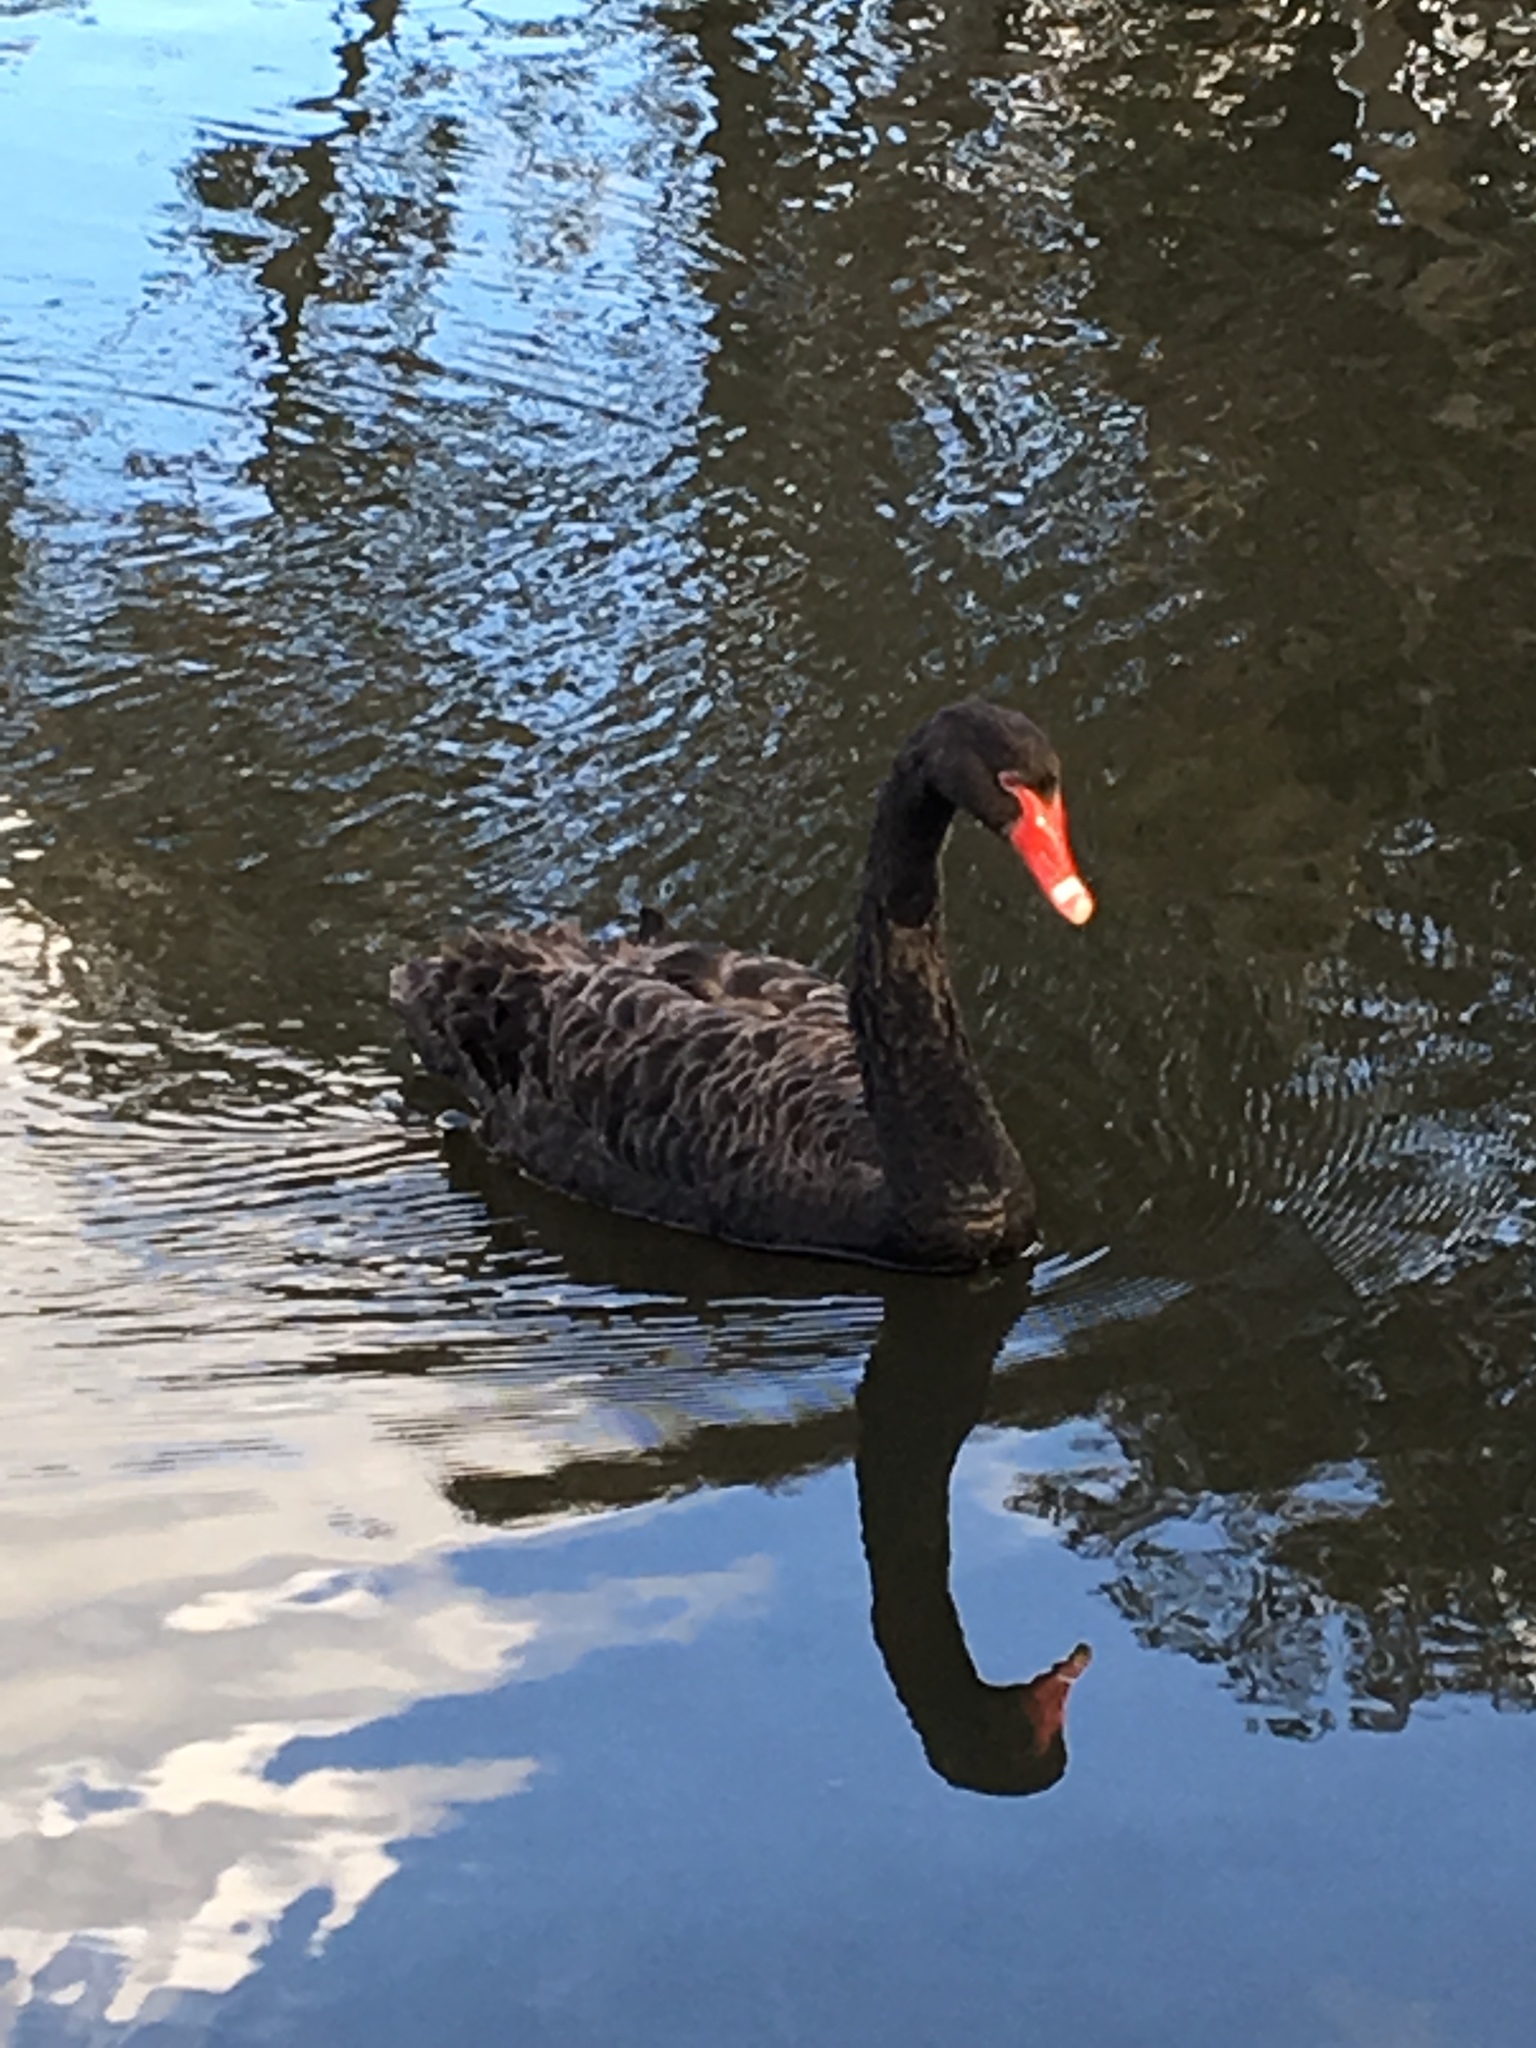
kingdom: Animalia
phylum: Chordata
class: Aves
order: Anseriformes
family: Anatidae
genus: Cygnus
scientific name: Cygnus atratus
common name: Black swan
